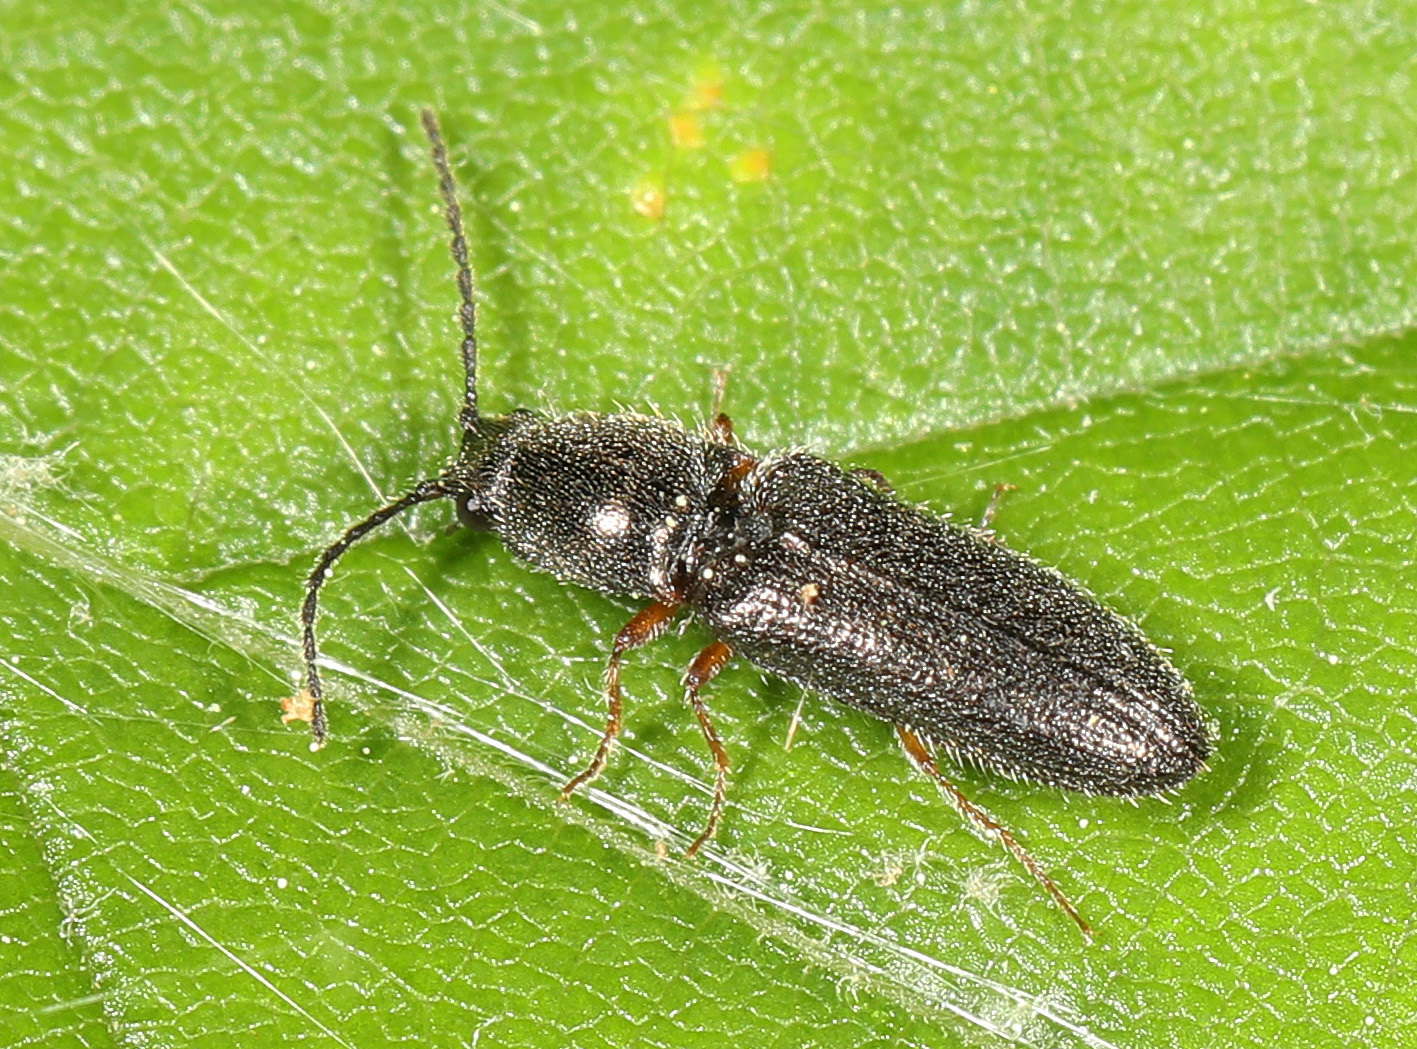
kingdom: Animalia
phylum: Arthropoda
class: Insecta
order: Coleoptera
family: Elateridae
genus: Limonius
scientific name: Limonius basilaris
